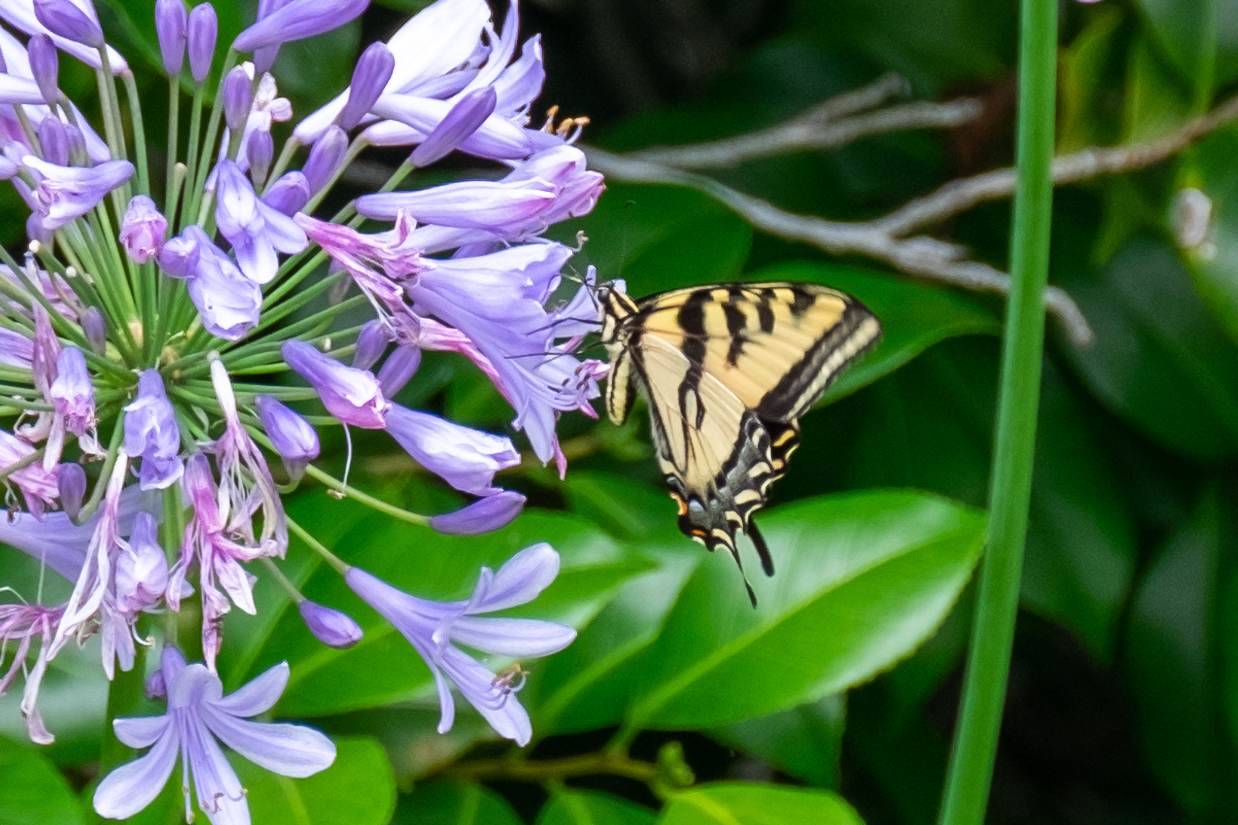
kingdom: Animalia
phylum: Arthropoda
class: Insecta
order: Lepidoptera
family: Papilionidae
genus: Papilio
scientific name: Papilio rutulus
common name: Western tiger swallowtail
